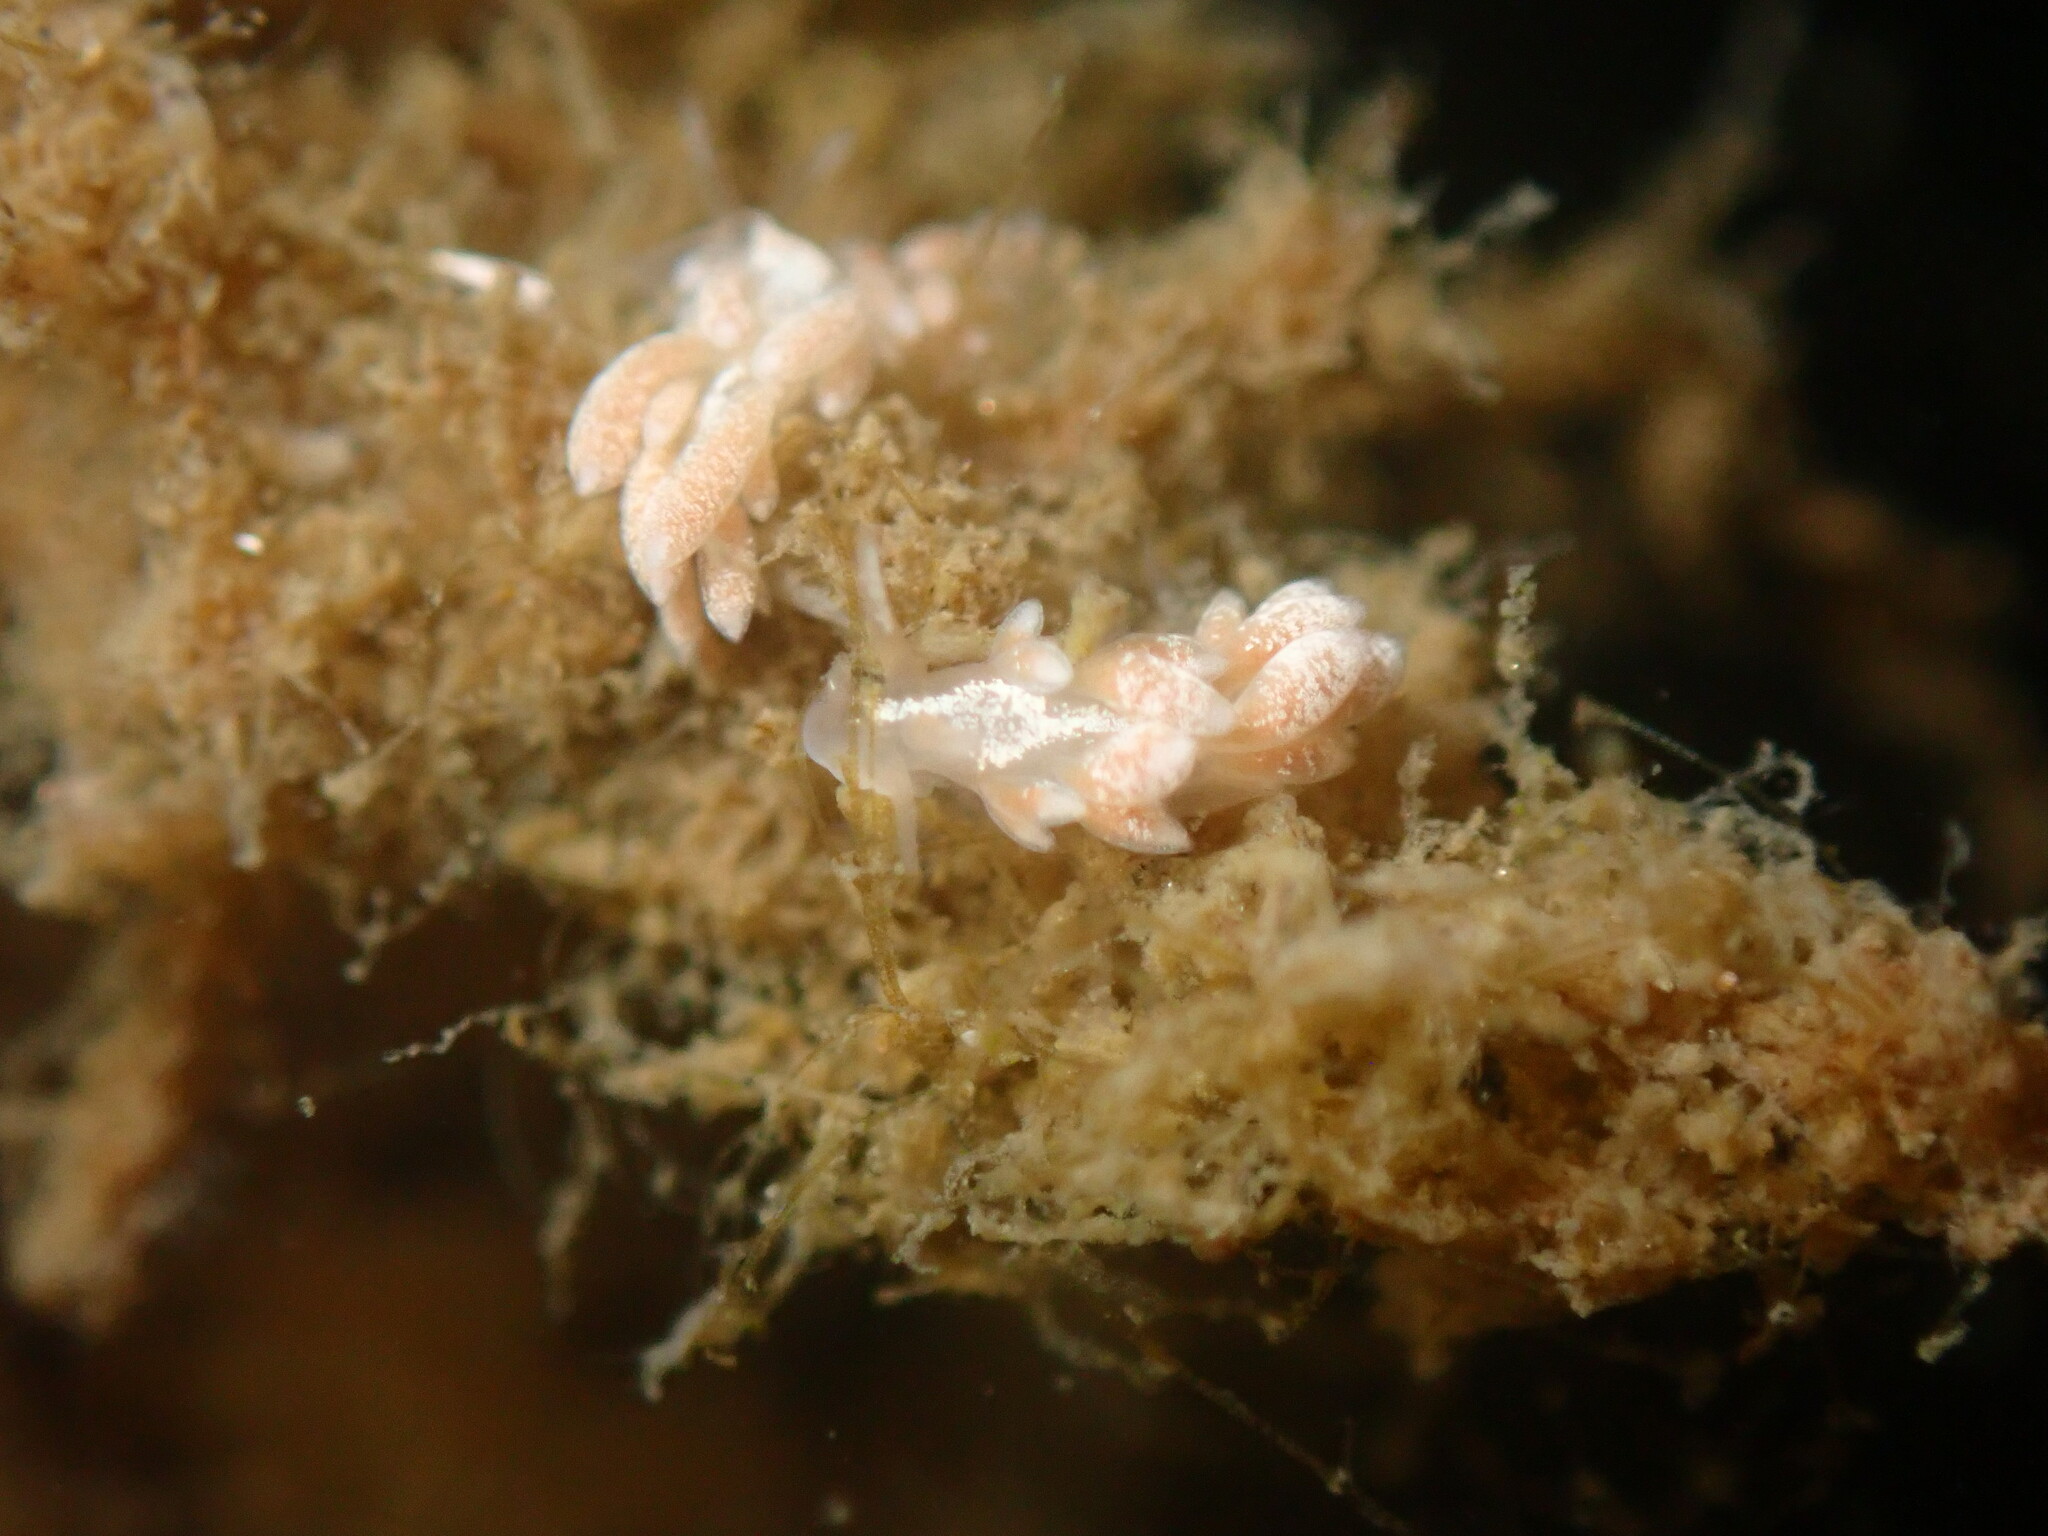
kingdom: Animalia
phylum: Mollusca
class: Gastropoda
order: Nudibranchia
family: Trinchesiidae
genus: Trinchesia
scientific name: Trinchesia albocrusta
